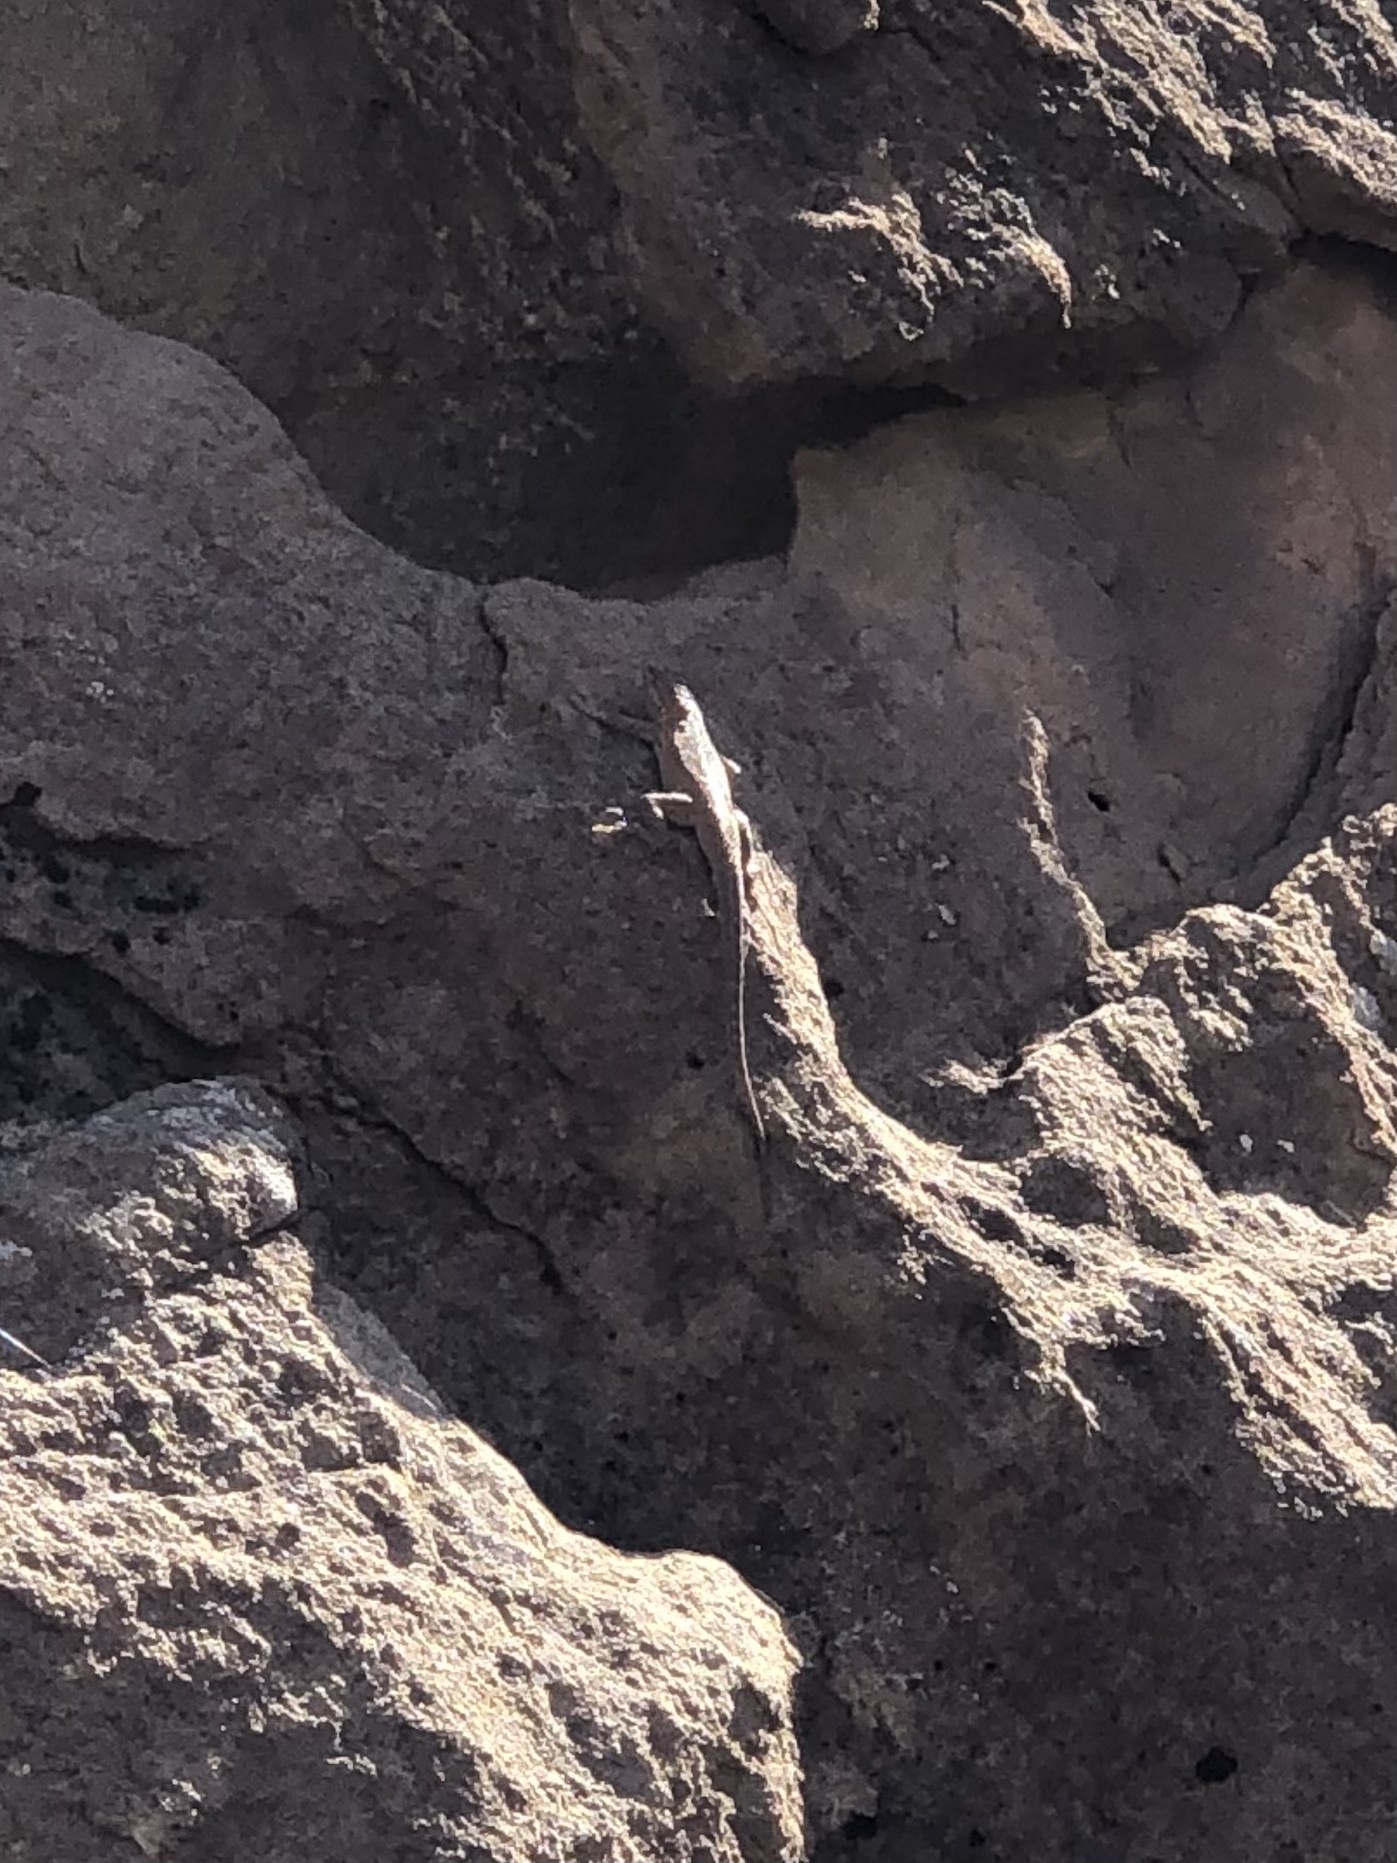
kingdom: Animalia
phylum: Chordata
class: Squamata
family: Phrynosomatidae
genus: Uta
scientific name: Uta stansburiana
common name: Side-blotched lizard
